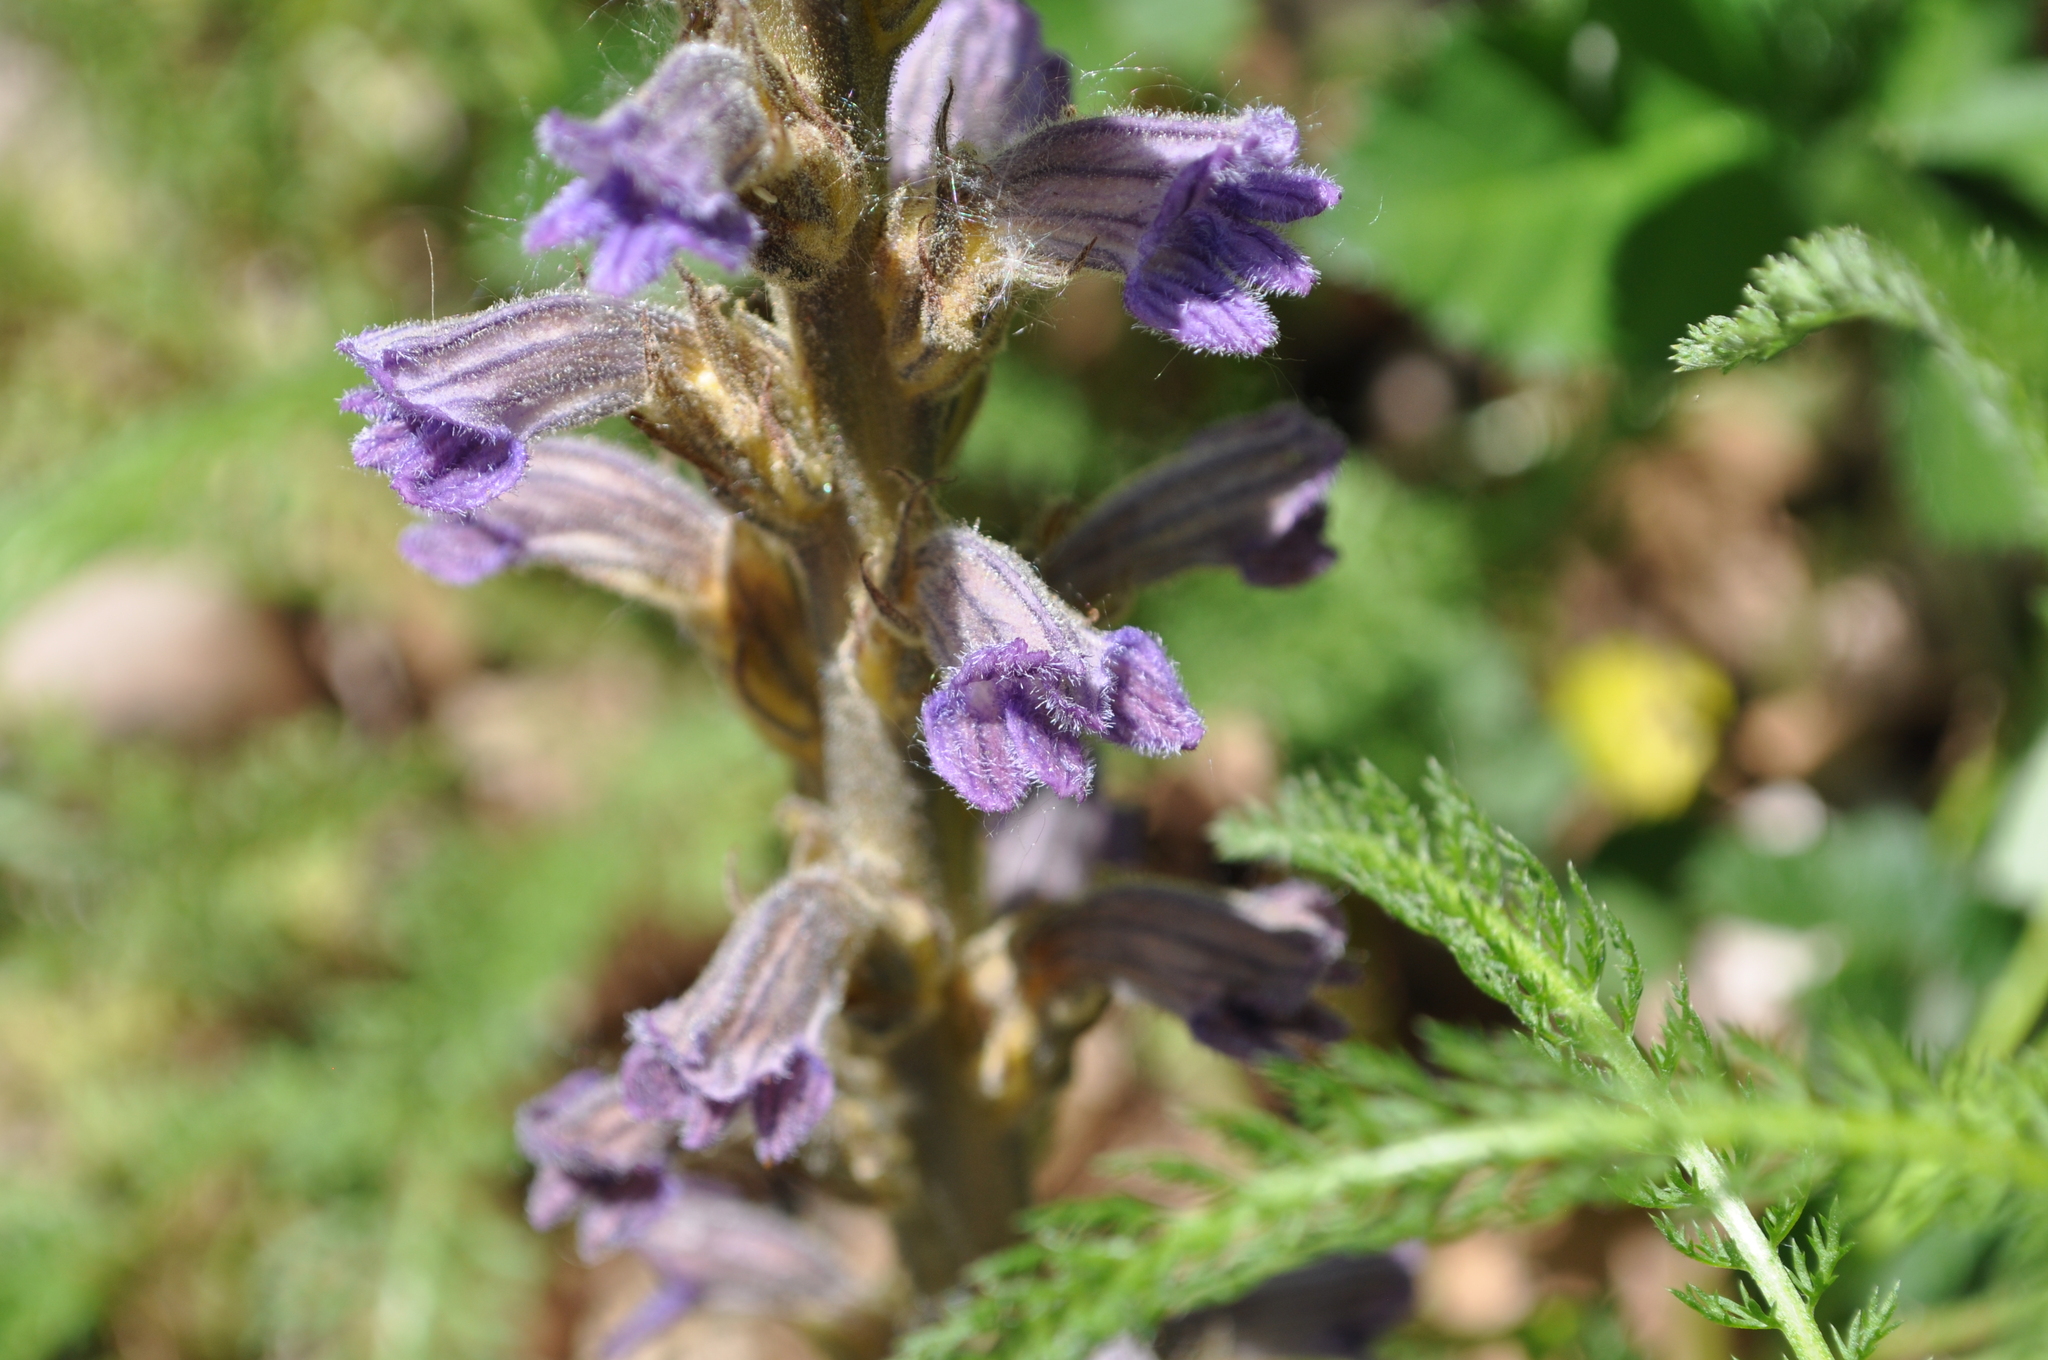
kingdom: Plantae
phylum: Tracheophyta
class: Magnoliopsida
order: Lamiales
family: Orobanchaceae
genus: Phelipanche
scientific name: Phelipanche purpurea
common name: Purple broomrape
